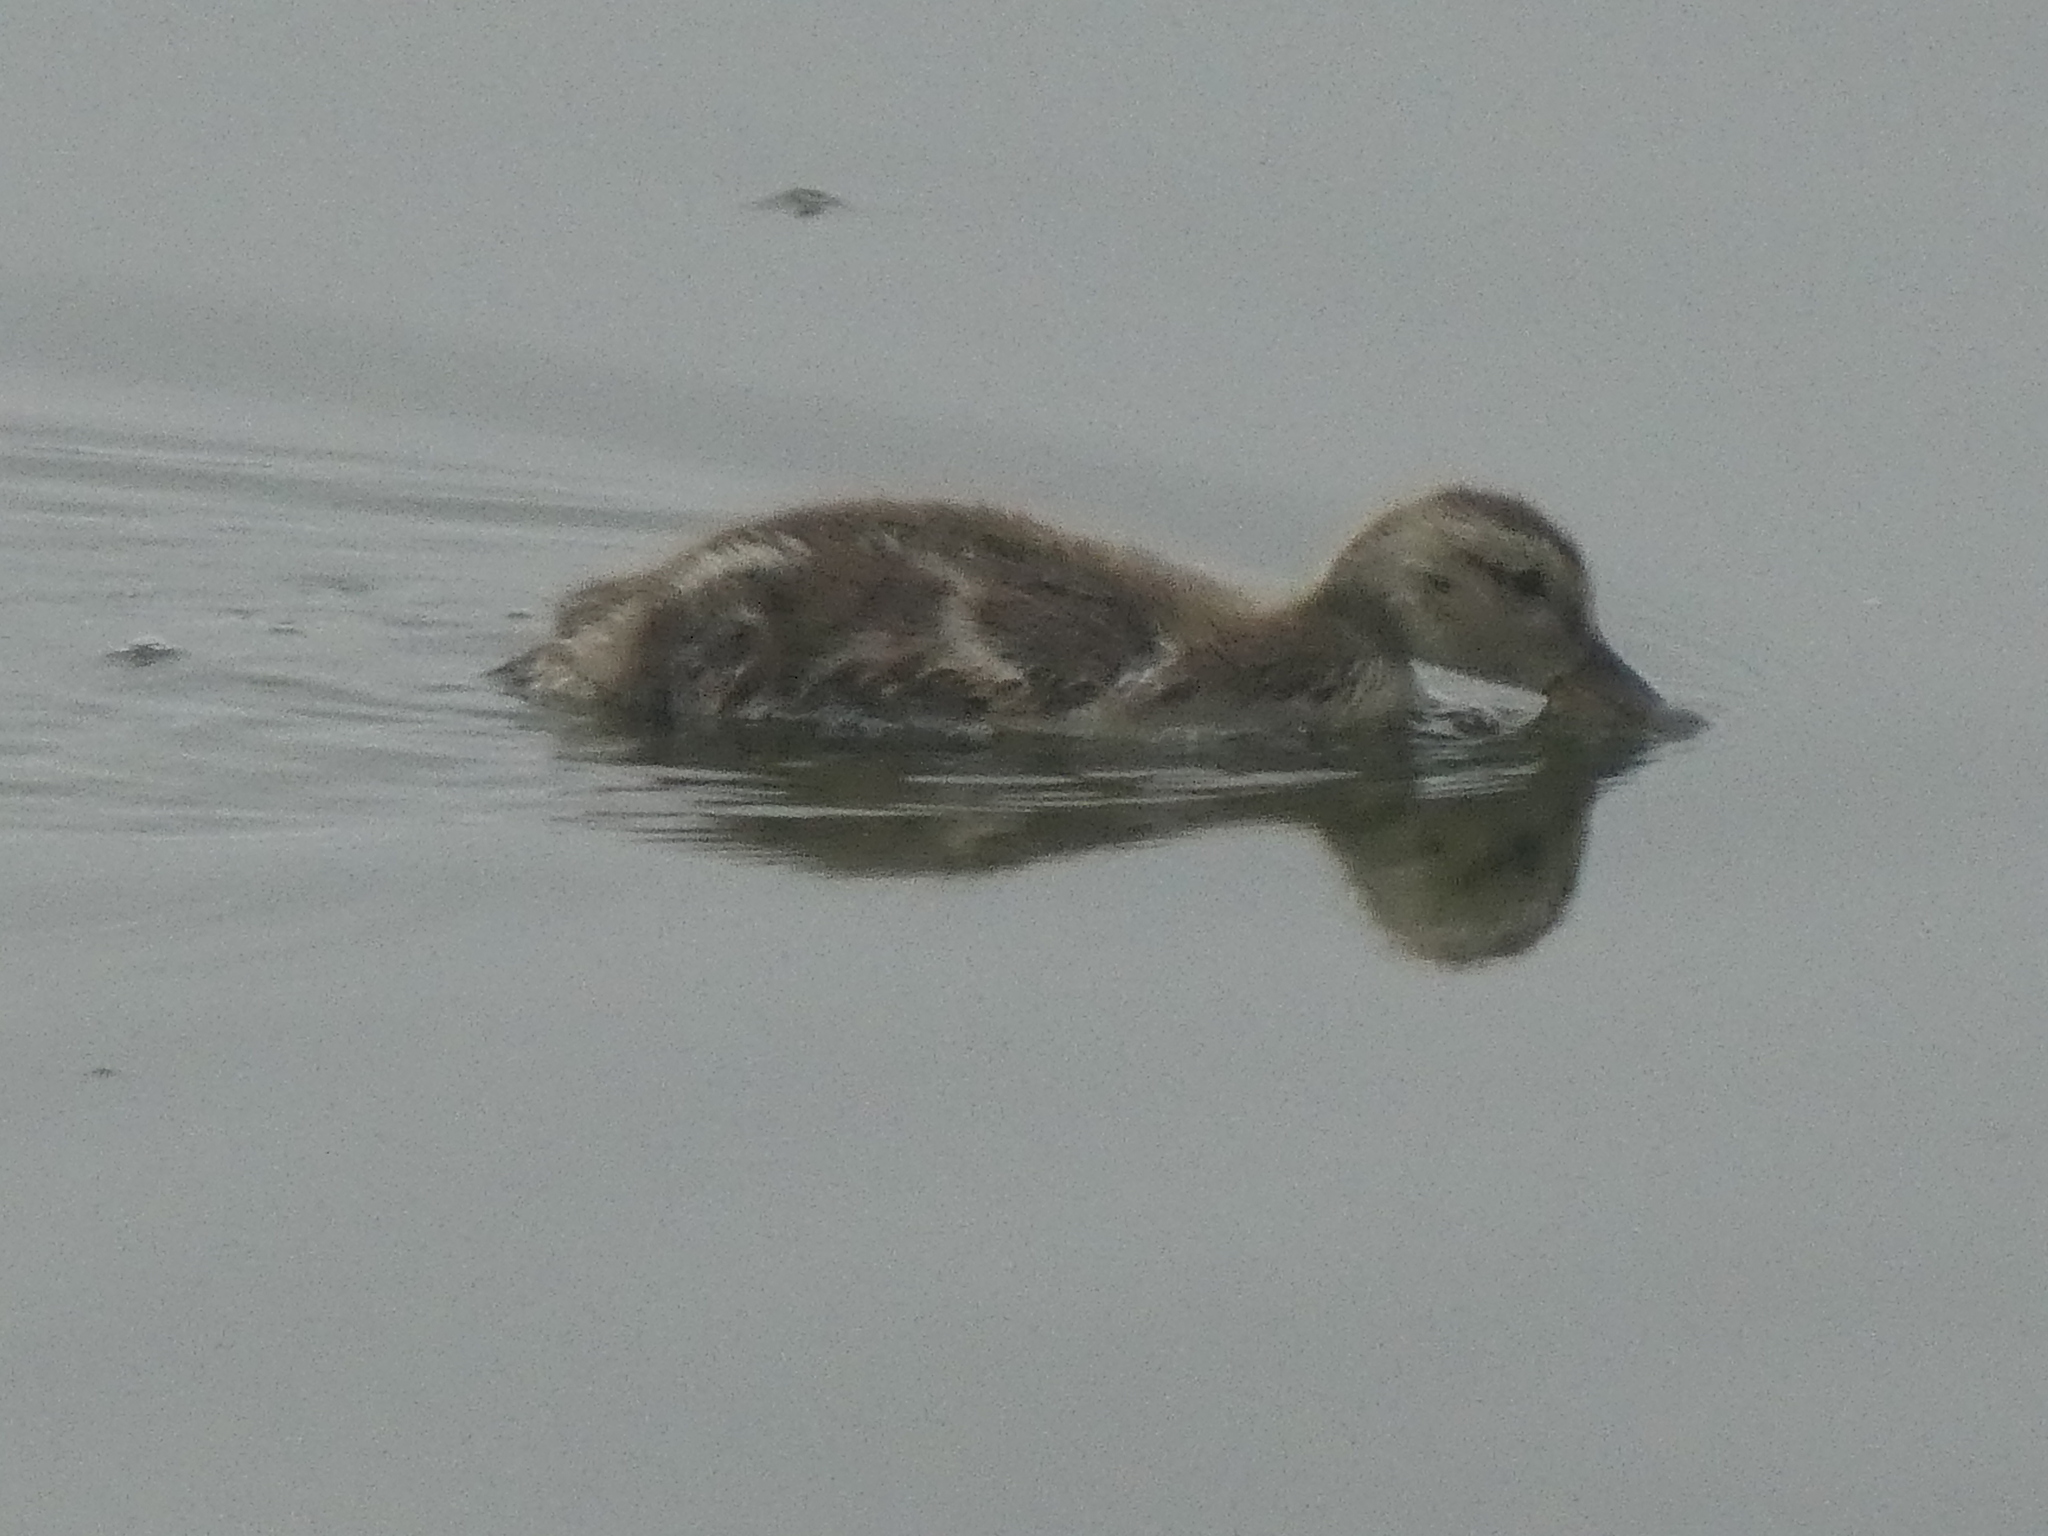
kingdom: Animalia
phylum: Chordata
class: Aves
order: Anseriformes
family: Anatidae
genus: Anas
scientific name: Anas platyrhynchos
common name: Mallard
